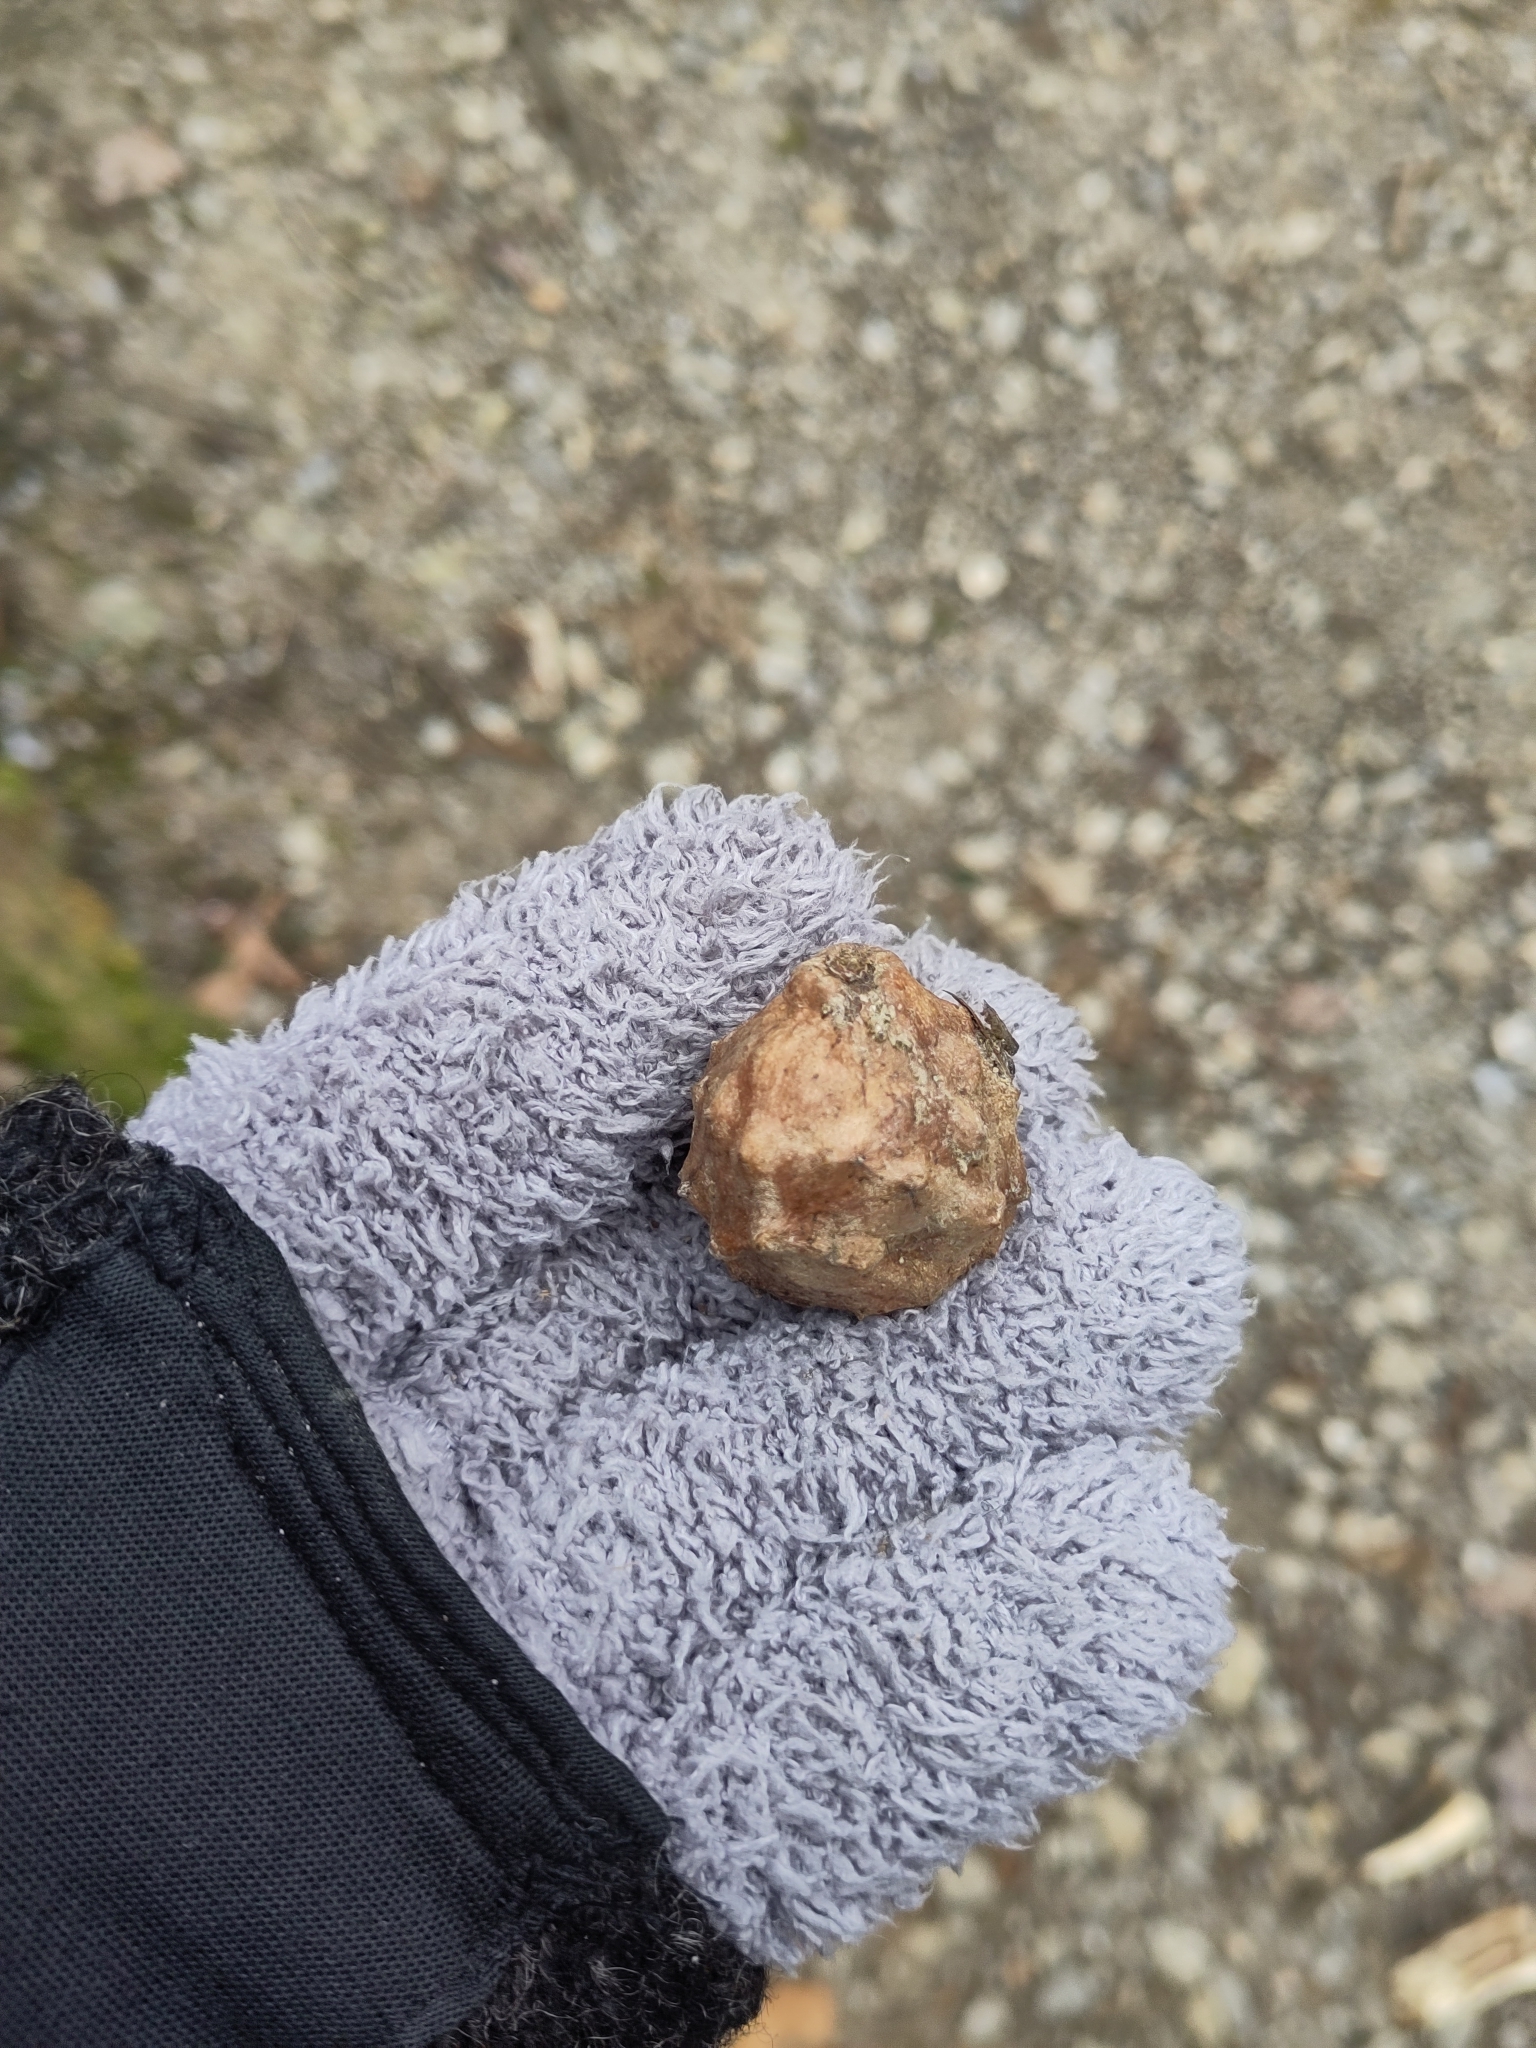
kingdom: Animalia
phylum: Arthropoda
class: Insecta
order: Hymenoptera
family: Cynipidae
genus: Andricus
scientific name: Andricus hungaricus
